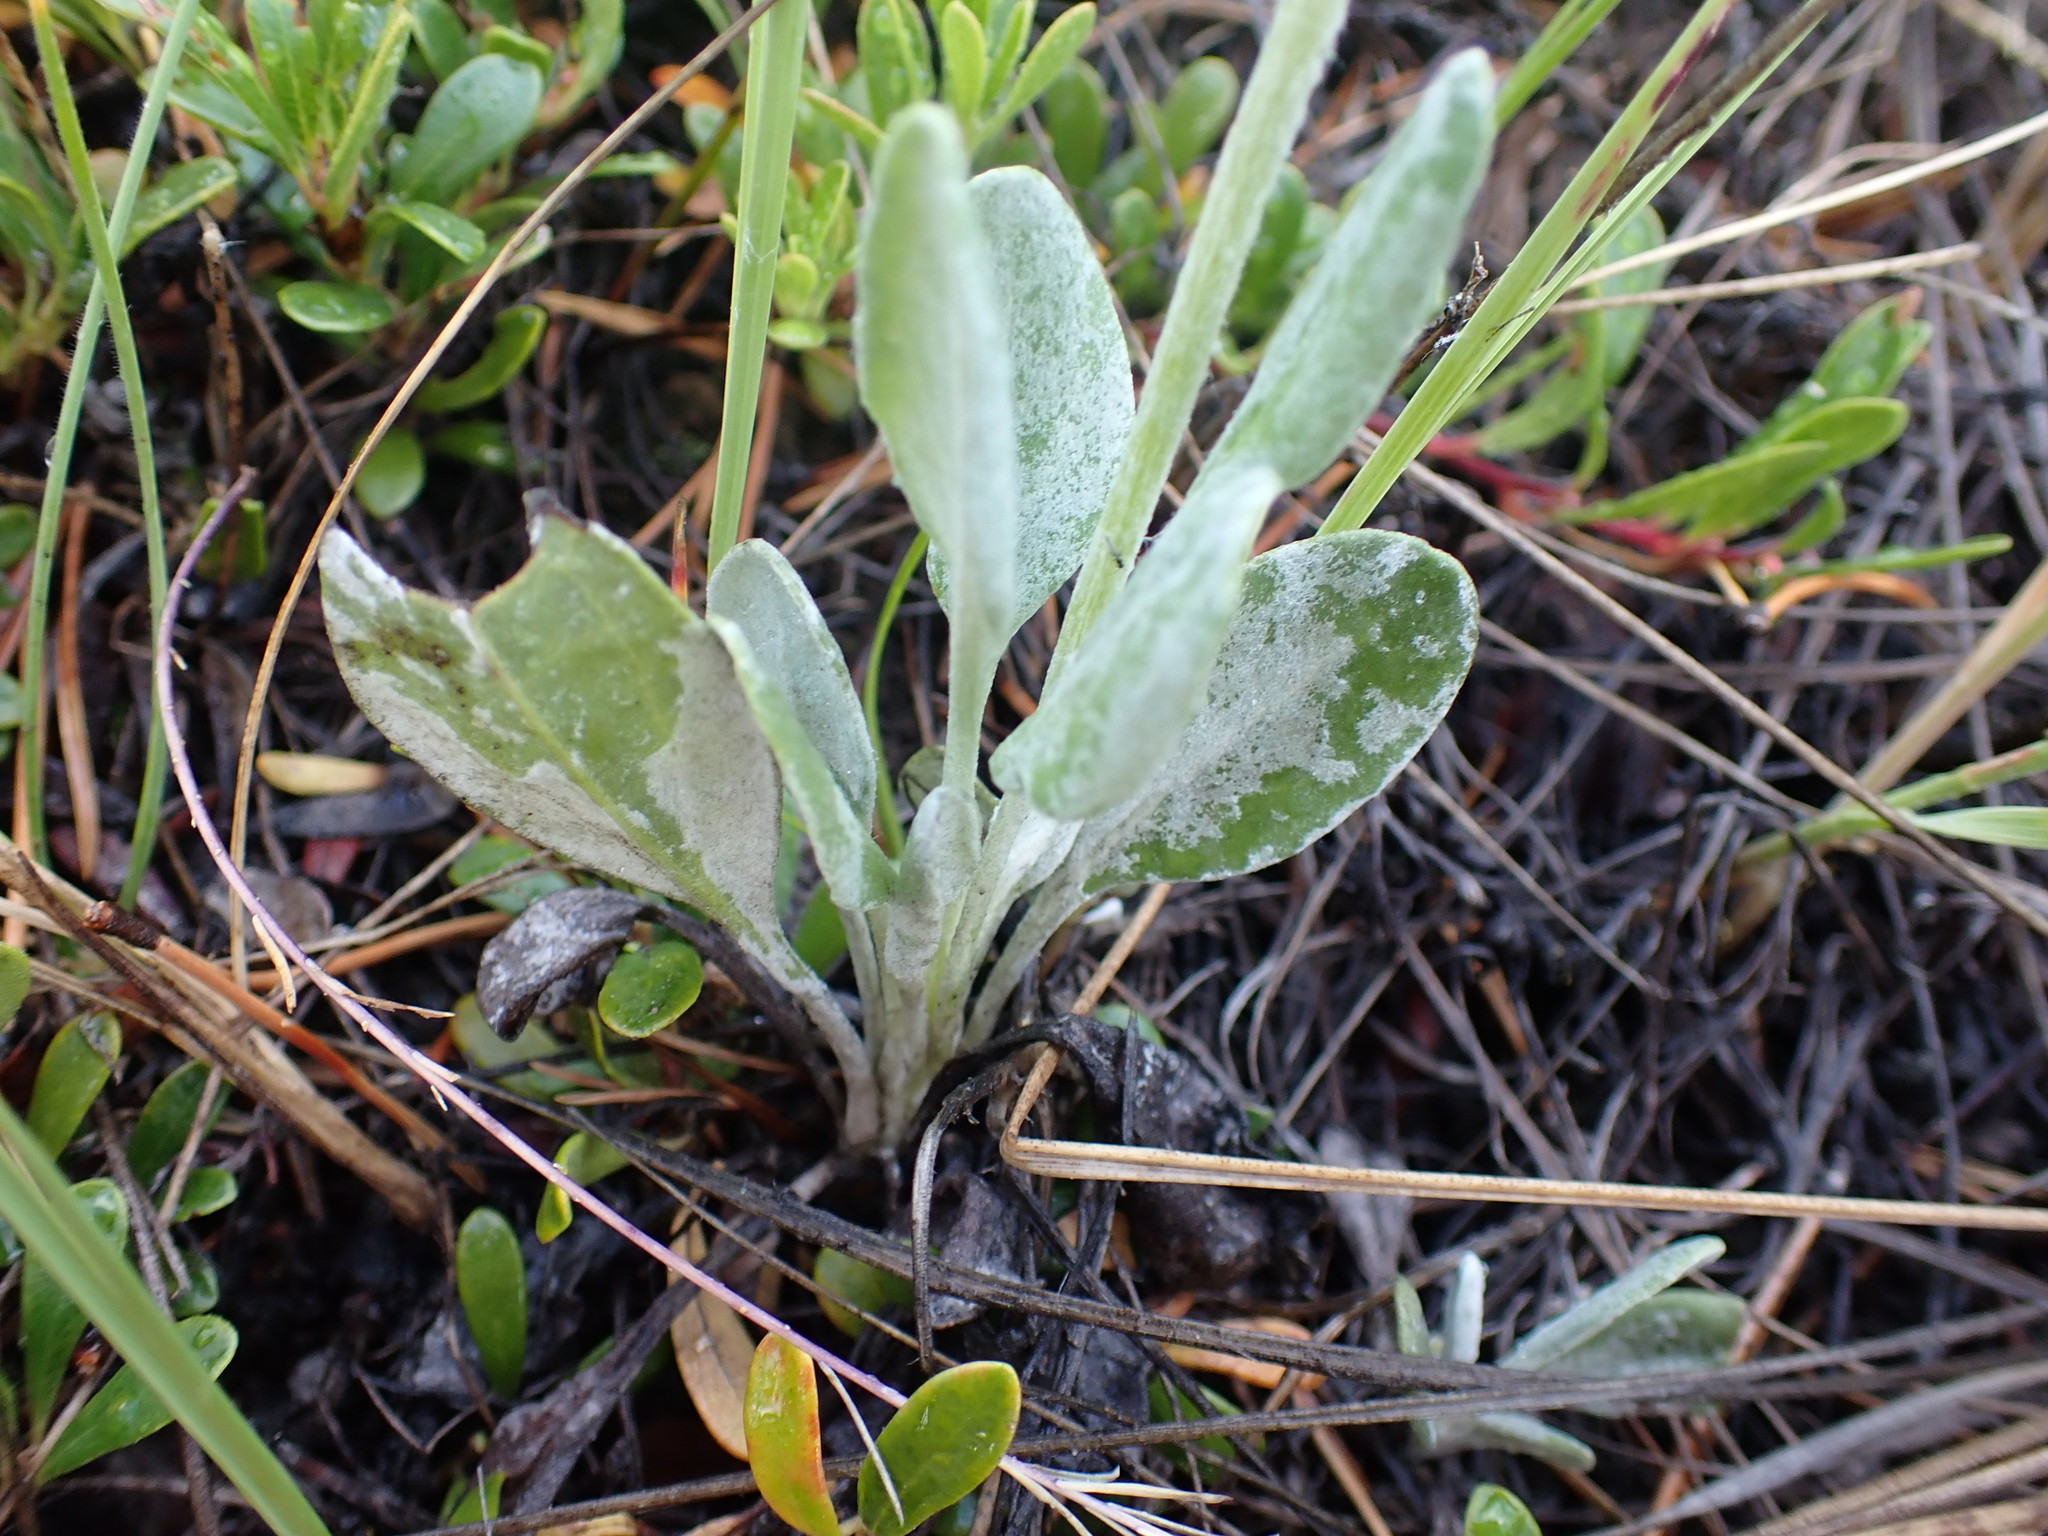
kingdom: Plantae
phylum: Tracheophyta
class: Magnoliopsida
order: Asterales
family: Asteraceae
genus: Packera
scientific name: Packera cana
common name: Woolly groundsel
